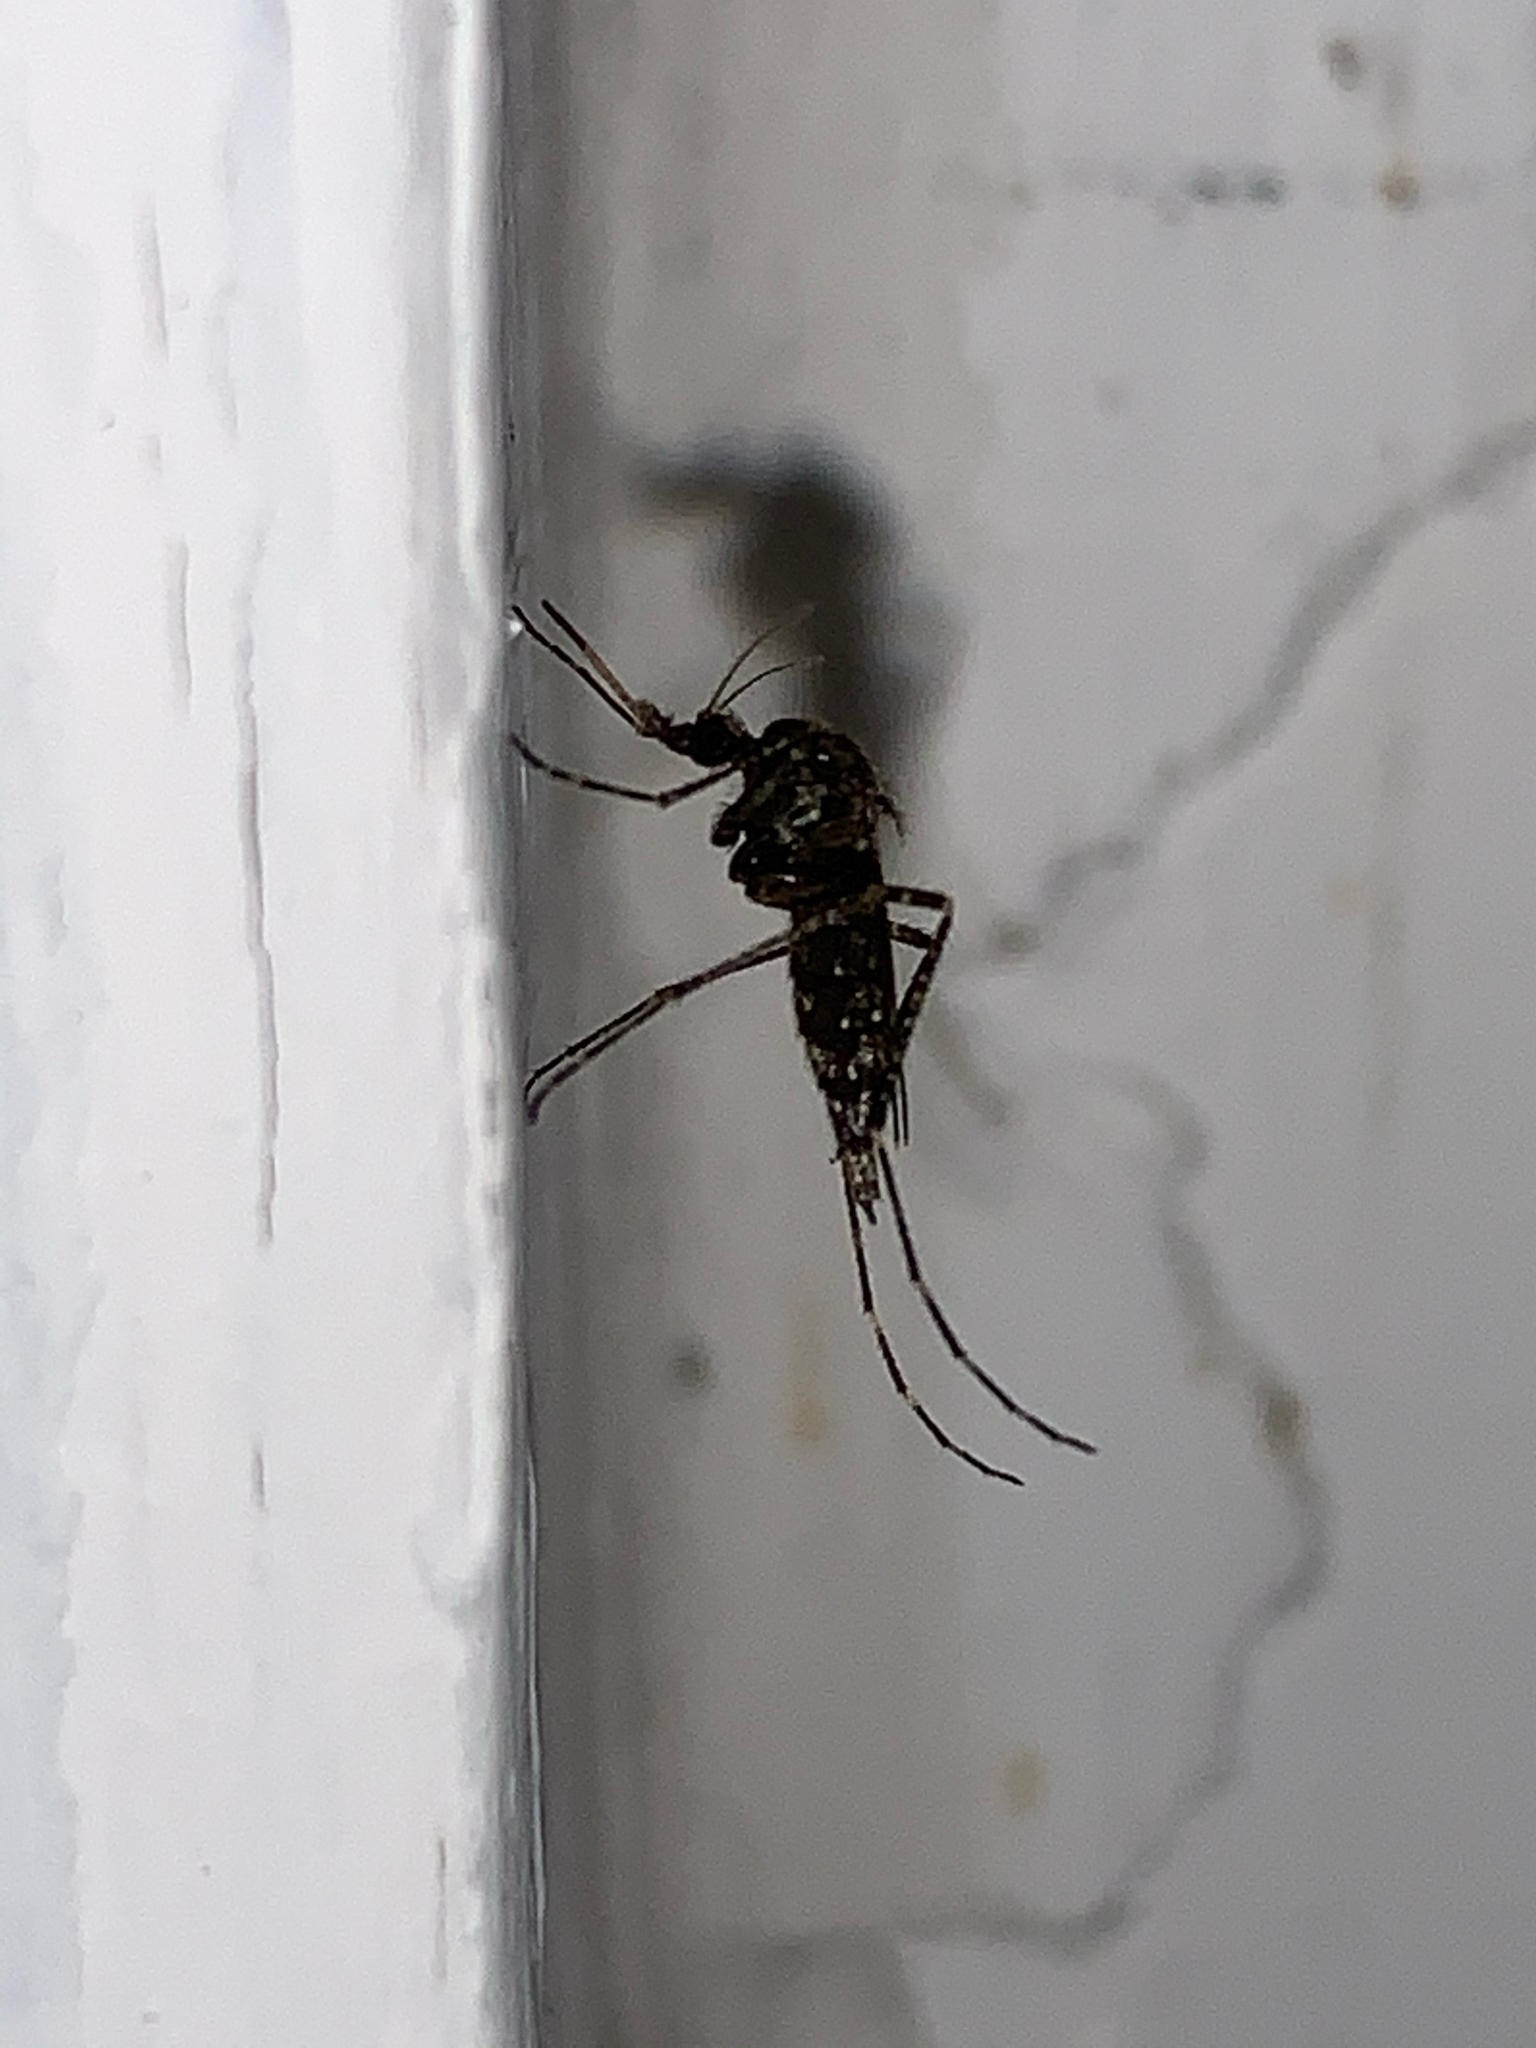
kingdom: Animalia
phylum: Arthropoda
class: Insecta
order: Diptera
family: Culicidae
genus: Psorophora
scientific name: Psorophora columbiae
